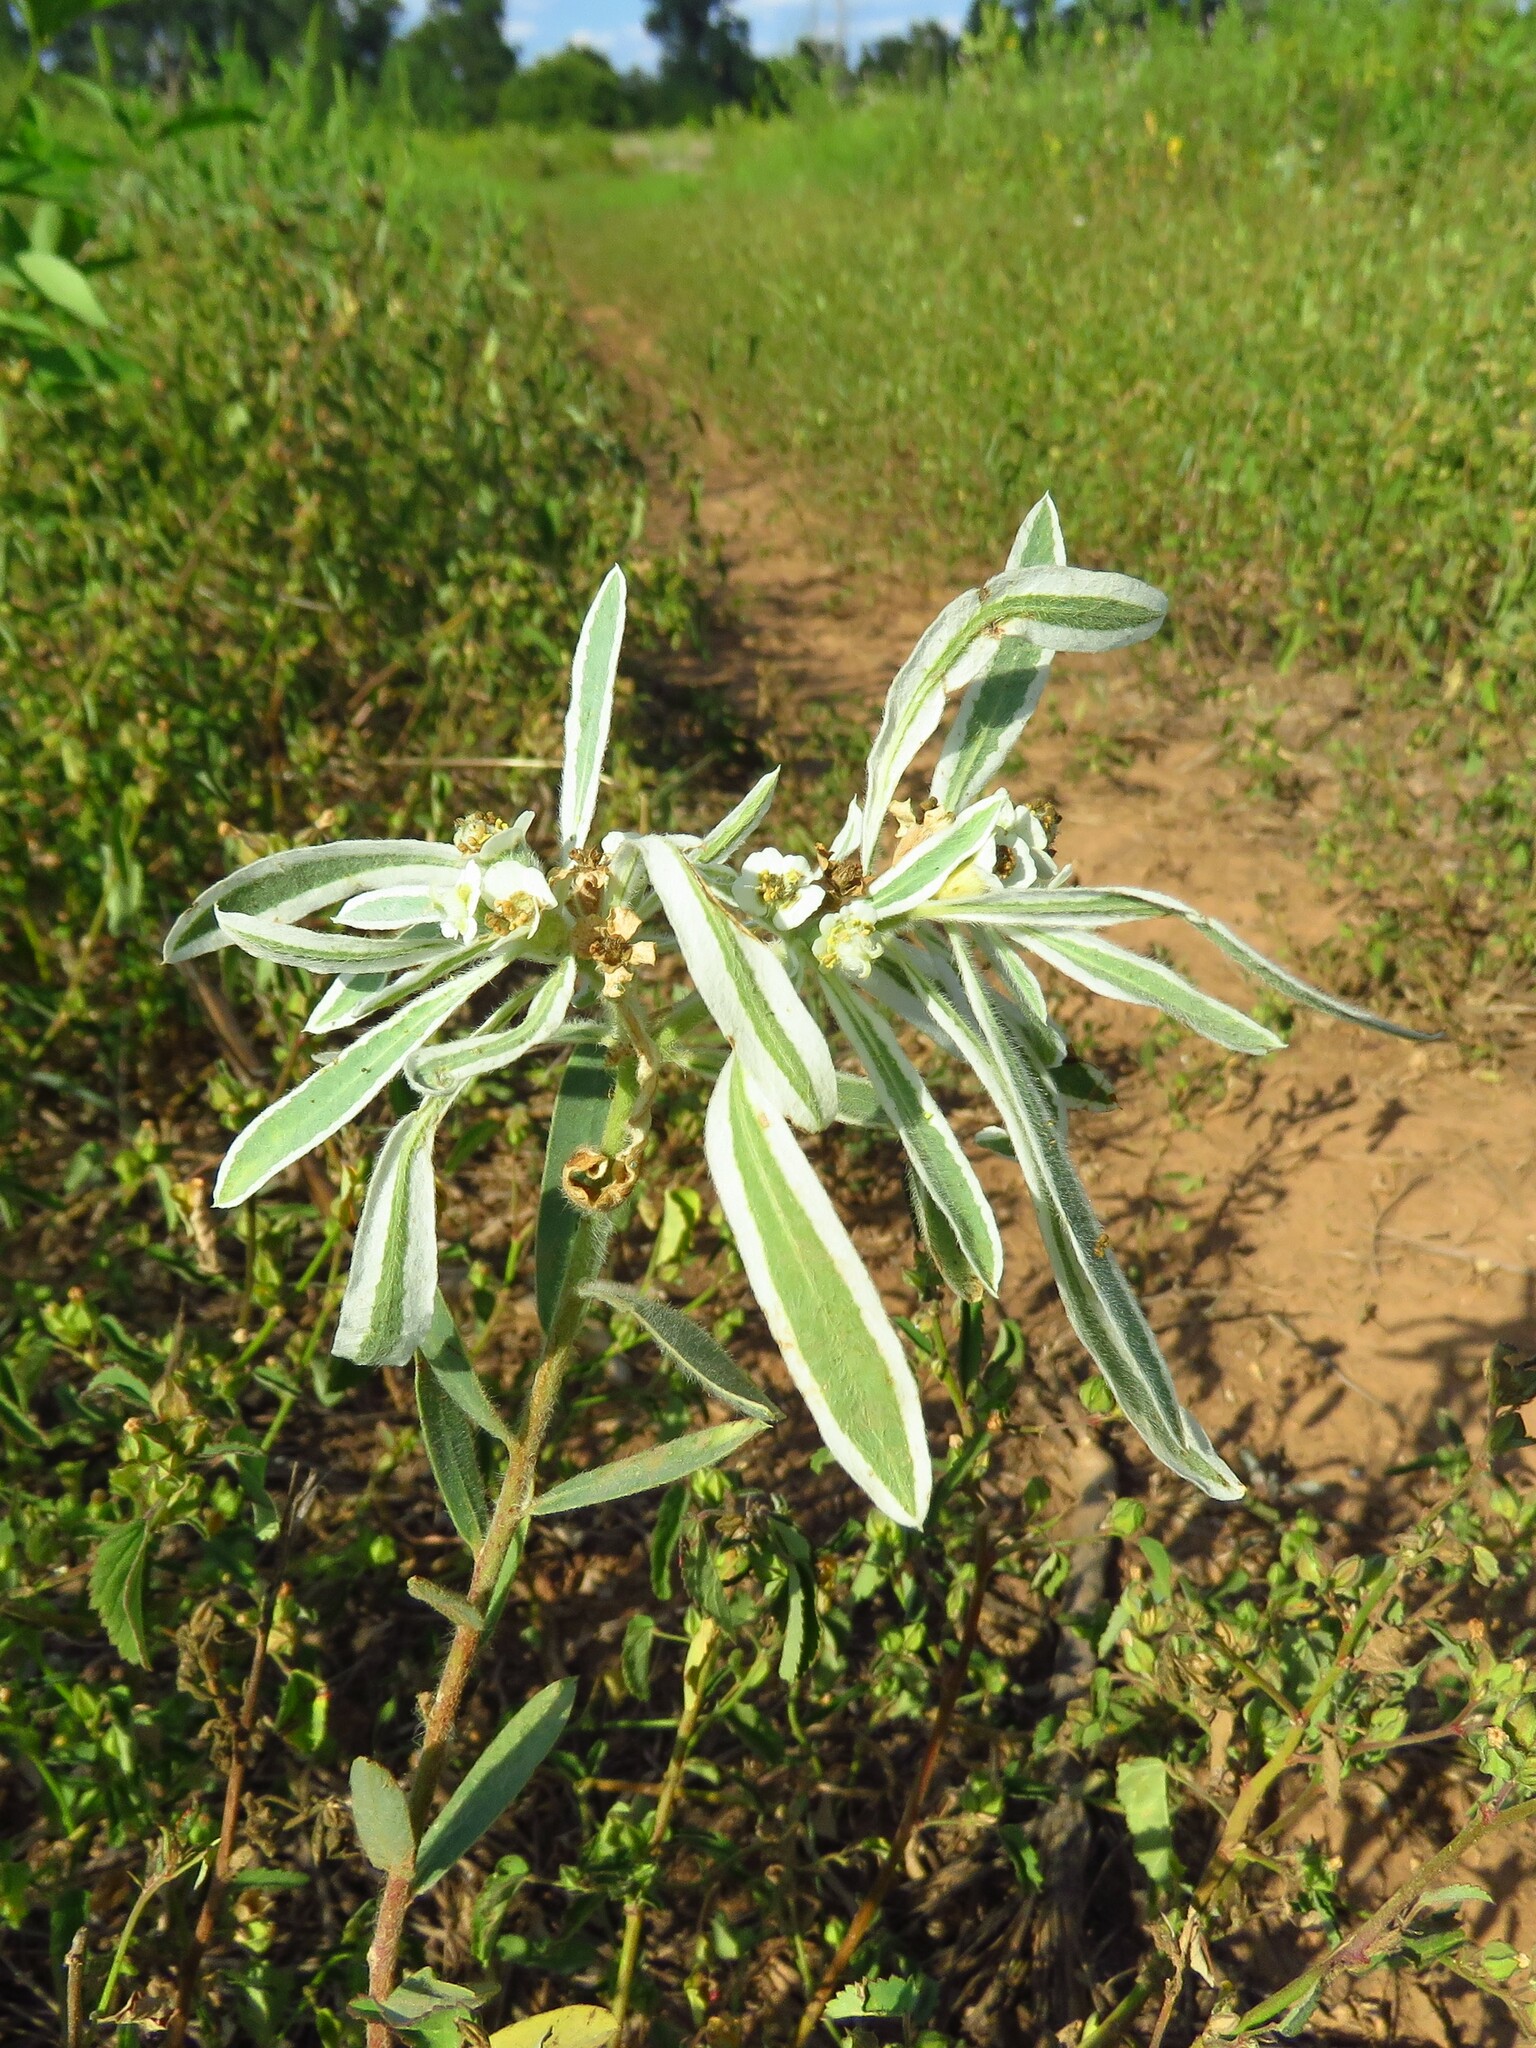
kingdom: Plantae
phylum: Tracheophyta
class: Magnoliopsida
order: Malpighiales
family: Euphorbiaceae
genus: Euphorbia
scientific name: Euphorbia bicolor
